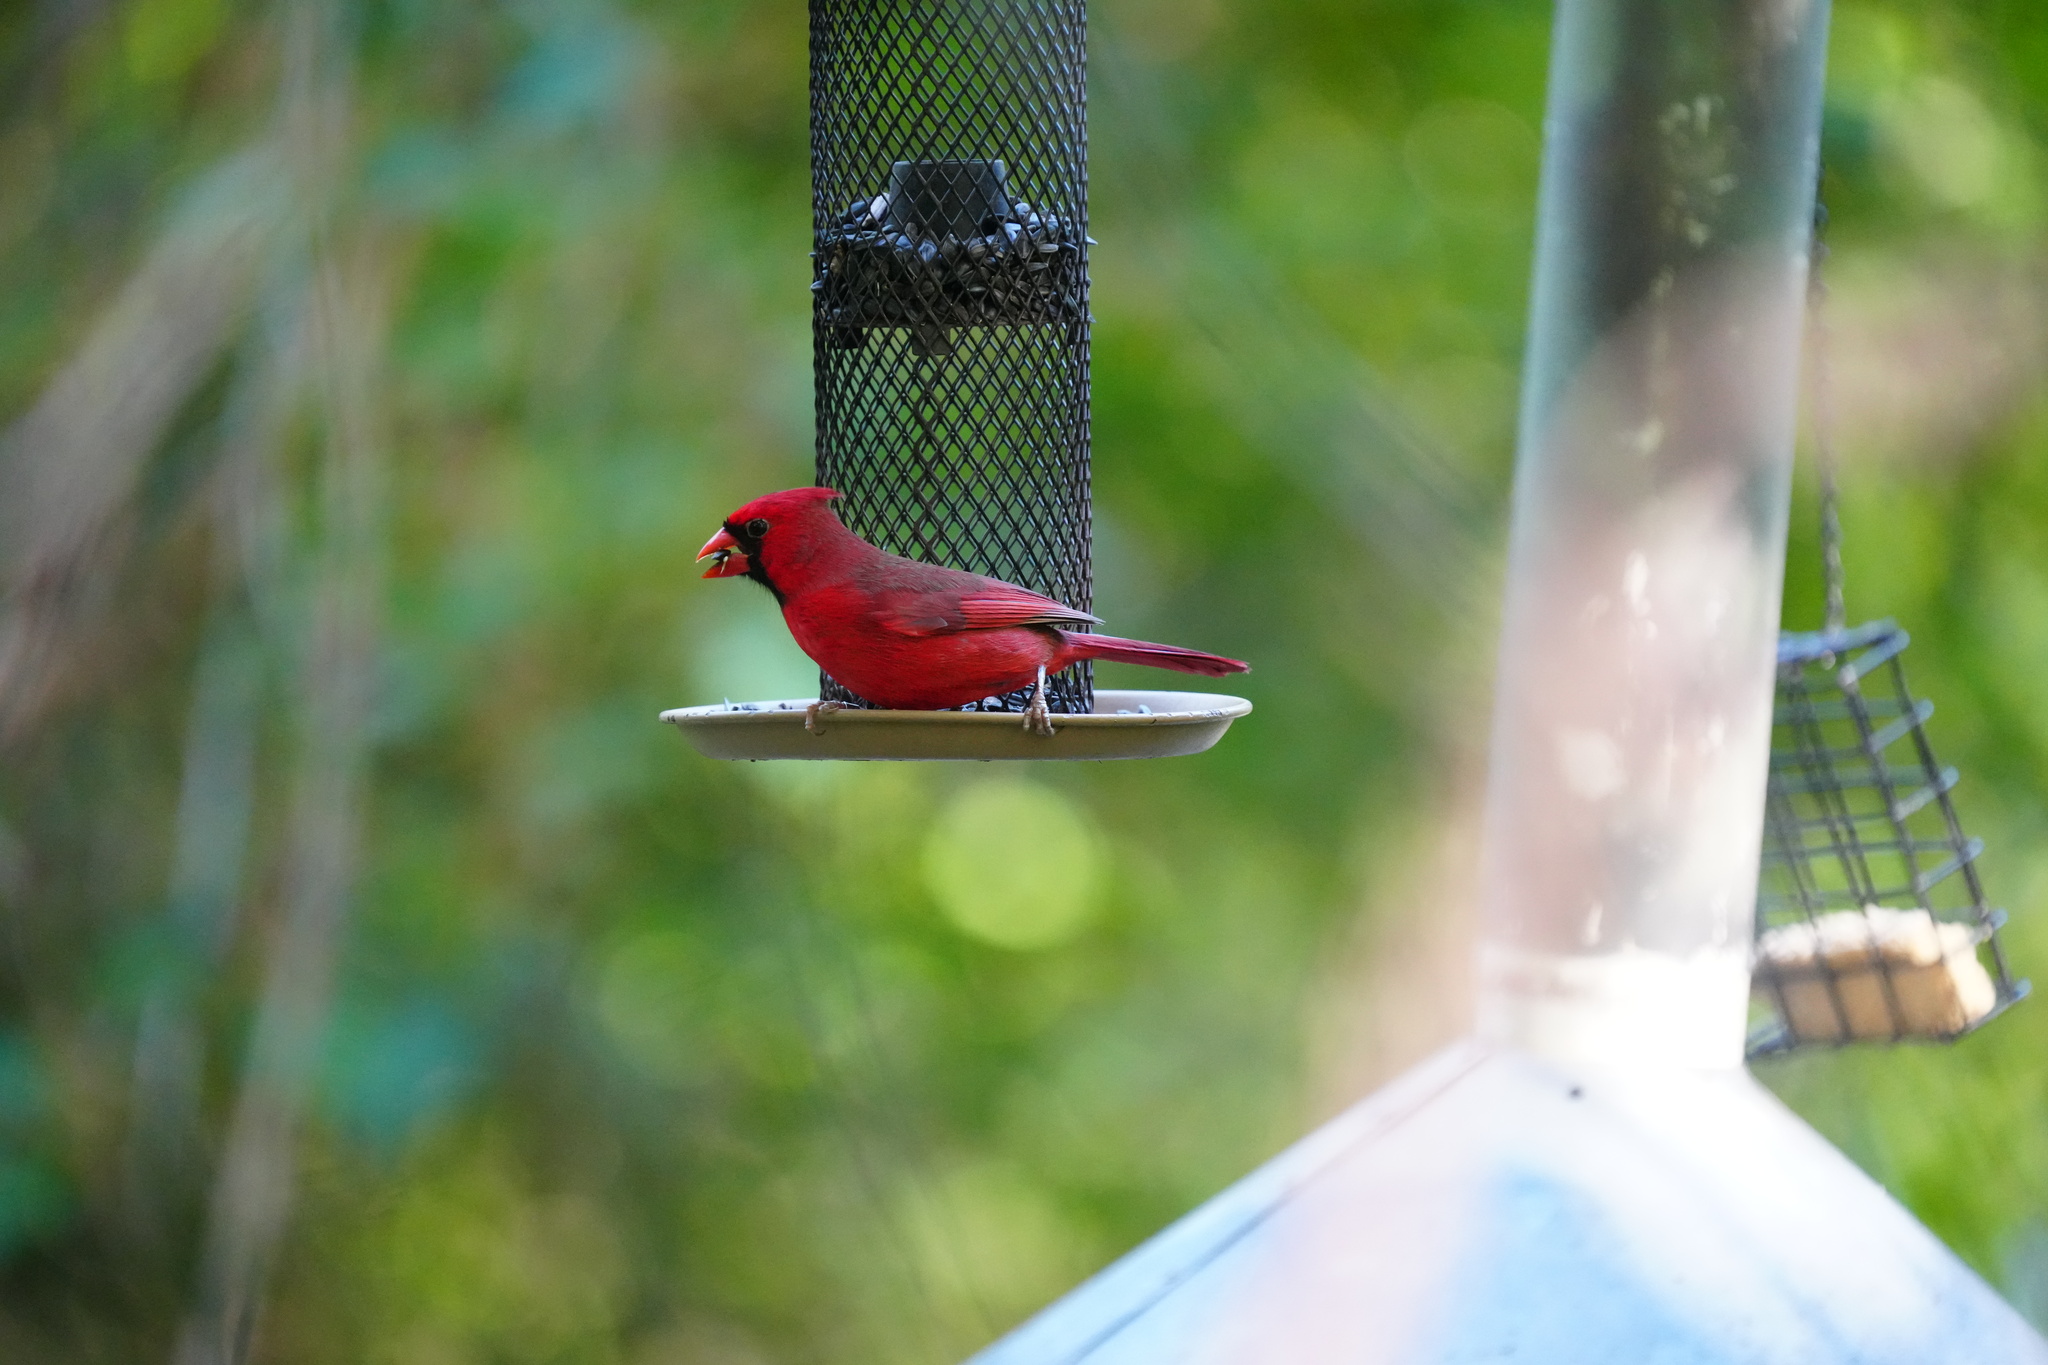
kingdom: Animalia
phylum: Chordata
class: Aves
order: Passeriformes
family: Cardinalidae
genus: Cardinalis
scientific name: Cardinalis cardinalis
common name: Northern cardinal
